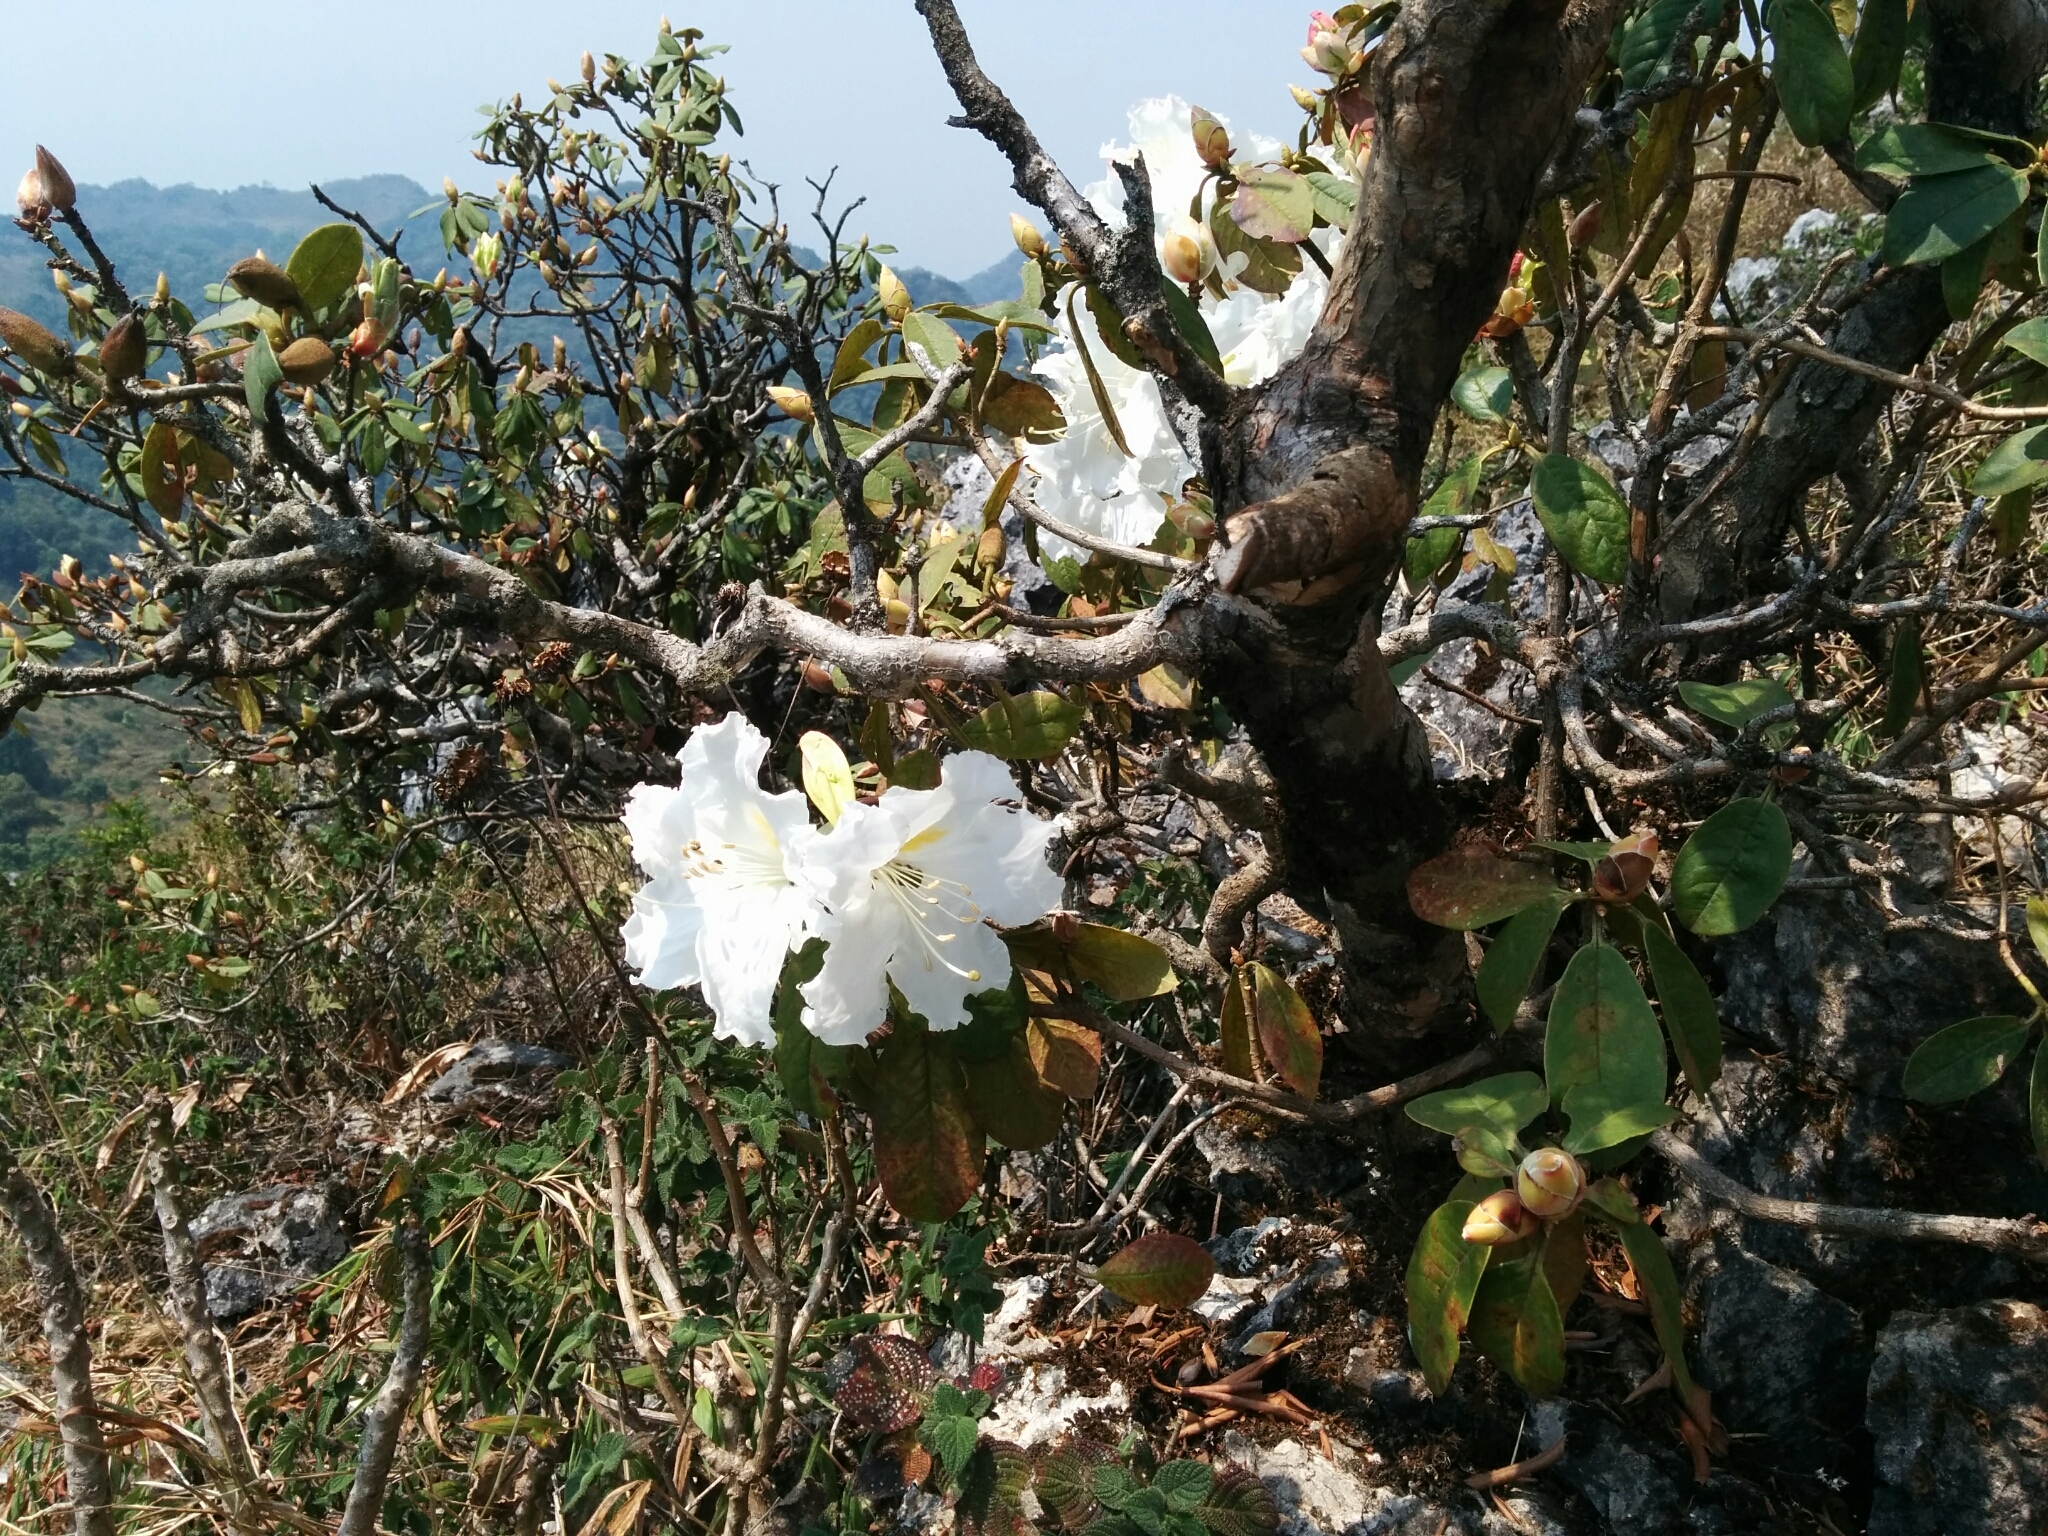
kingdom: Plantae
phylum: Tracheophyta
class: Magnoliopsida
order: Ericales
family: Ericaceae
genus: Rhododendron
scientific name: Rhododendron veitchianum
